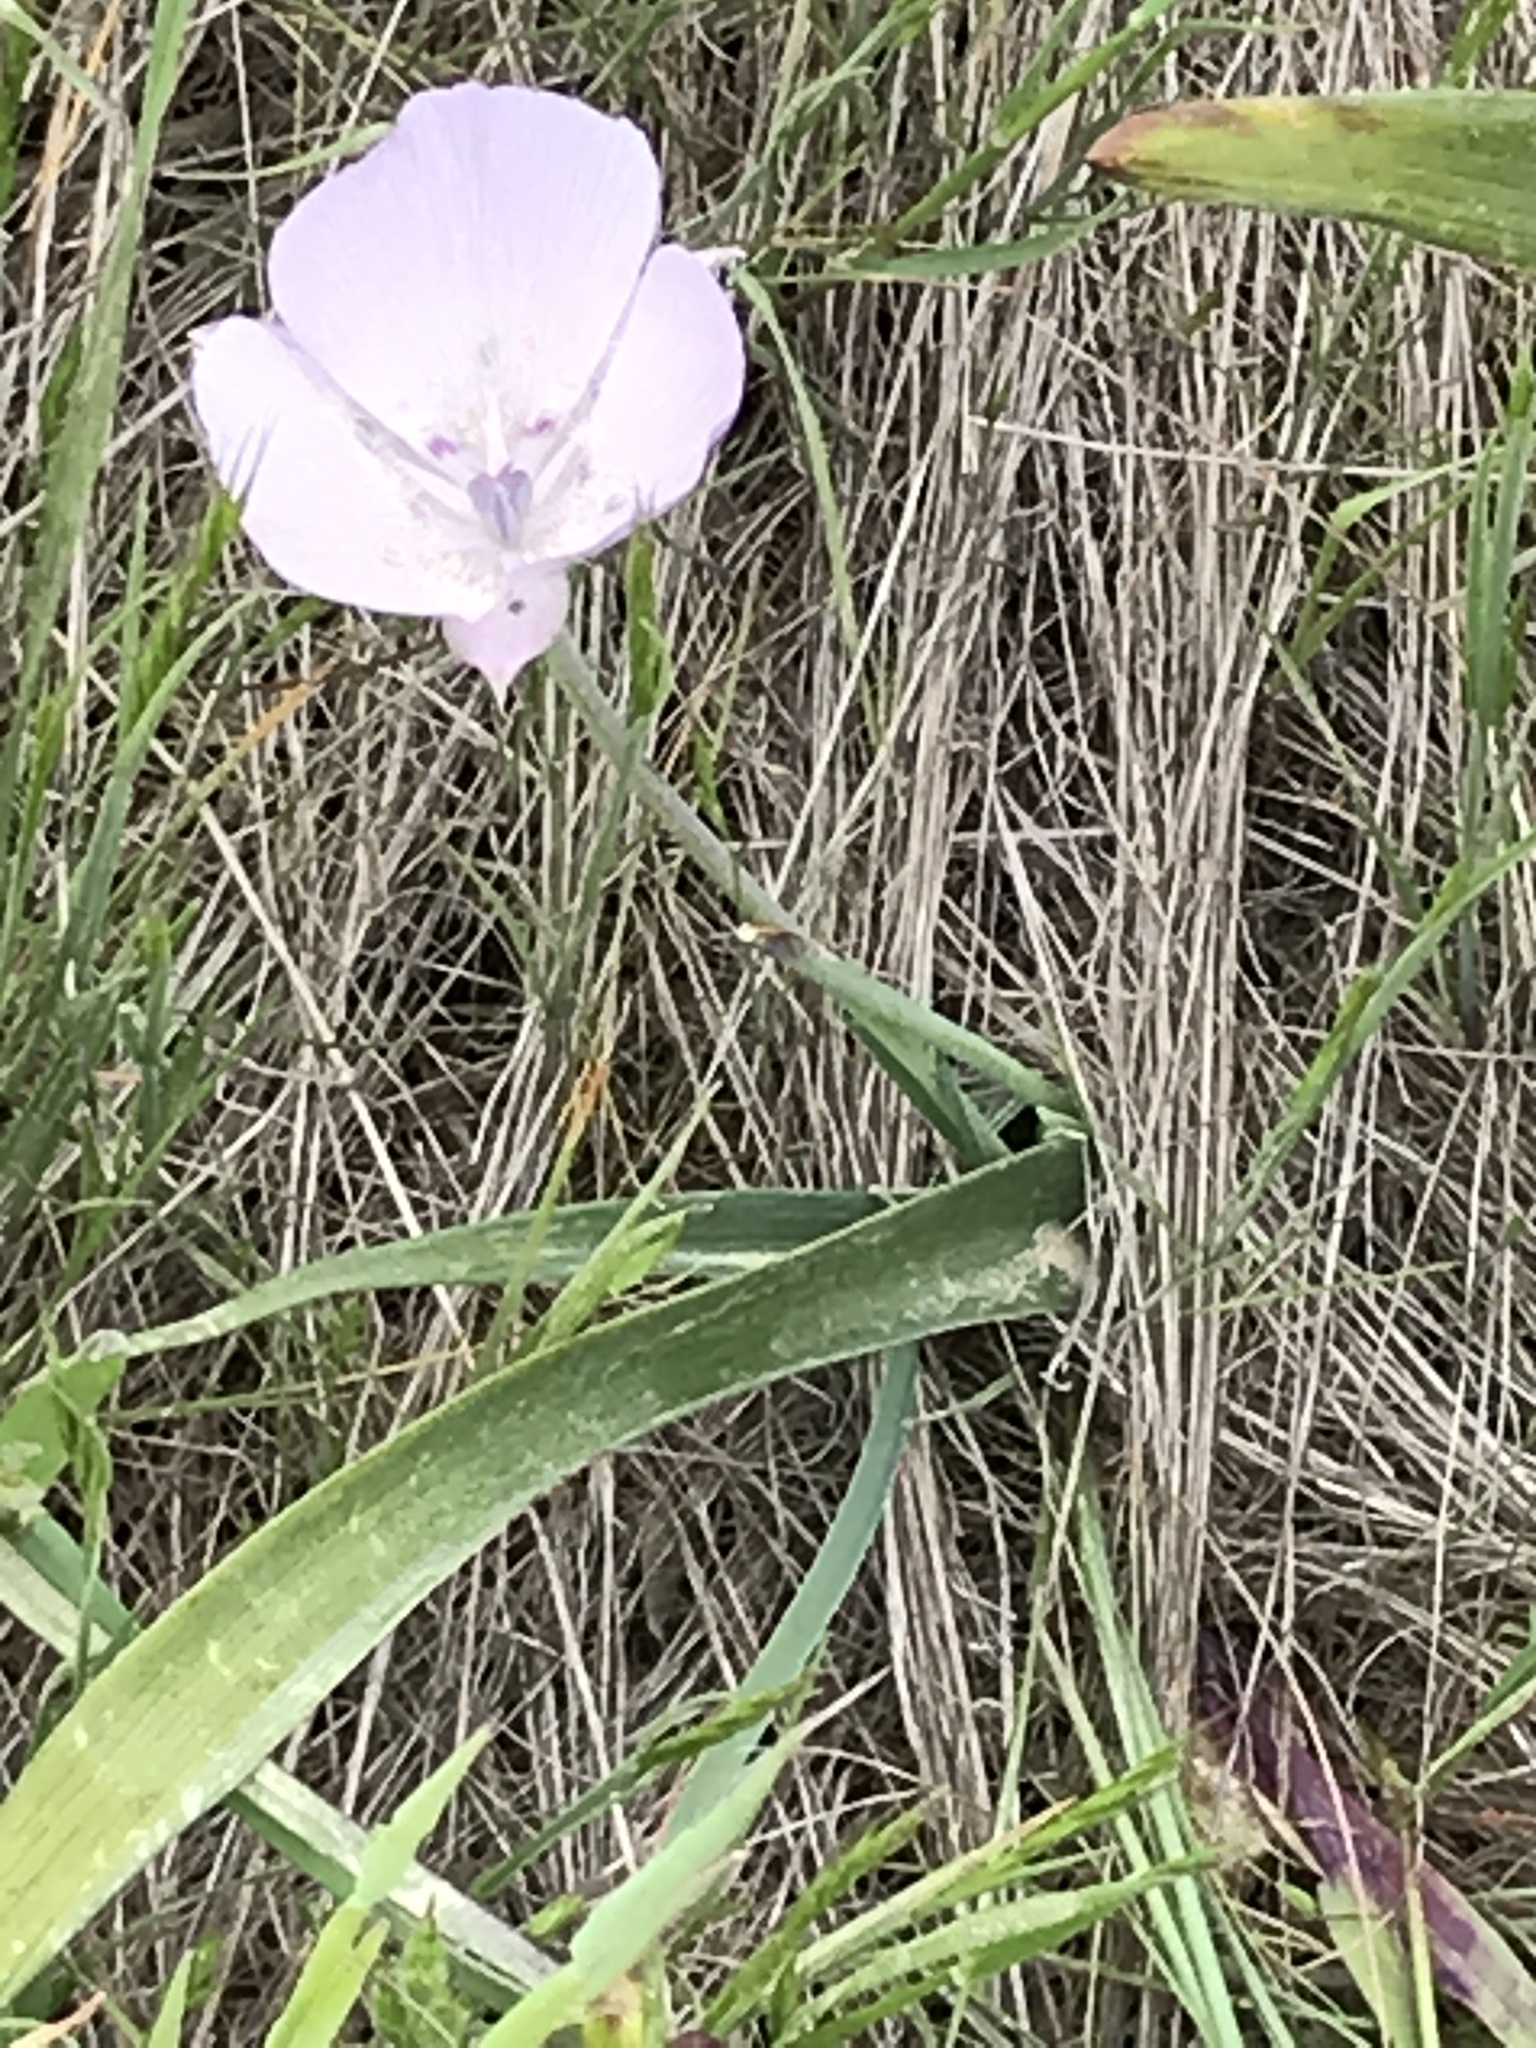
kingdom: Plantae
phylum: Tracheophyta
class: Liliopsida
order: Liliales
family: Liliaceae
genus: Calochortus
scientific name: Calochortus uniflorus
